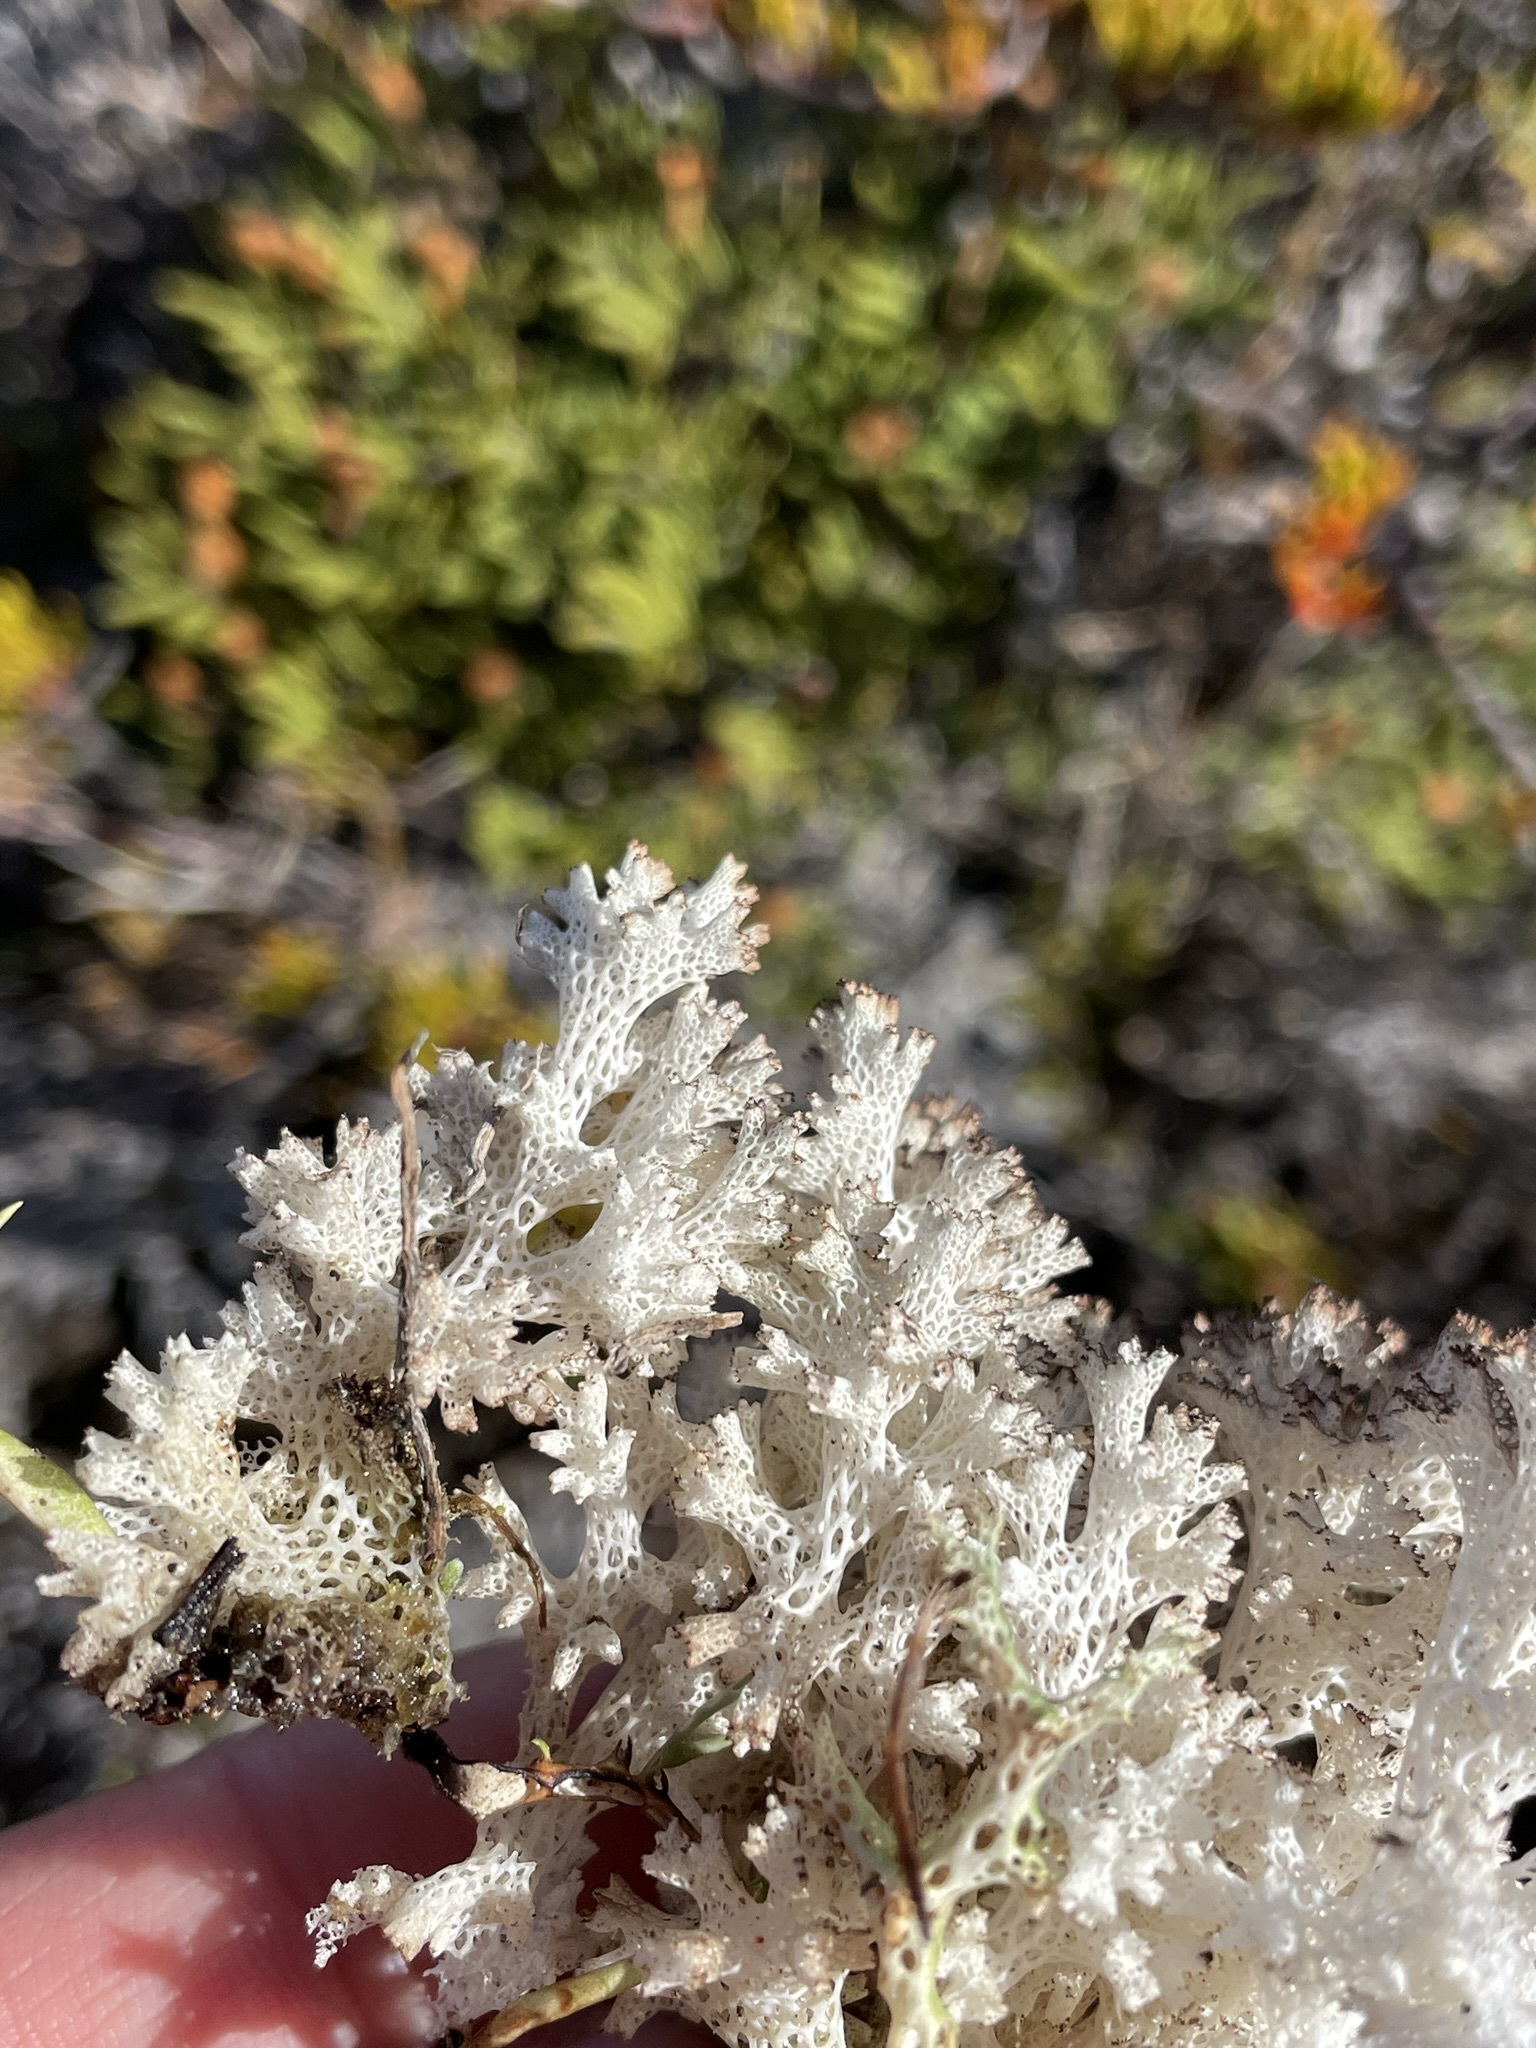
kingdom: Fungi
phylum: Ascomycota
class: Lecanoromycetes
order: Lecanorales
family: Cladoniaceae
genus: Pulchrocladia
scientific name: Pulchrocladia retipora
